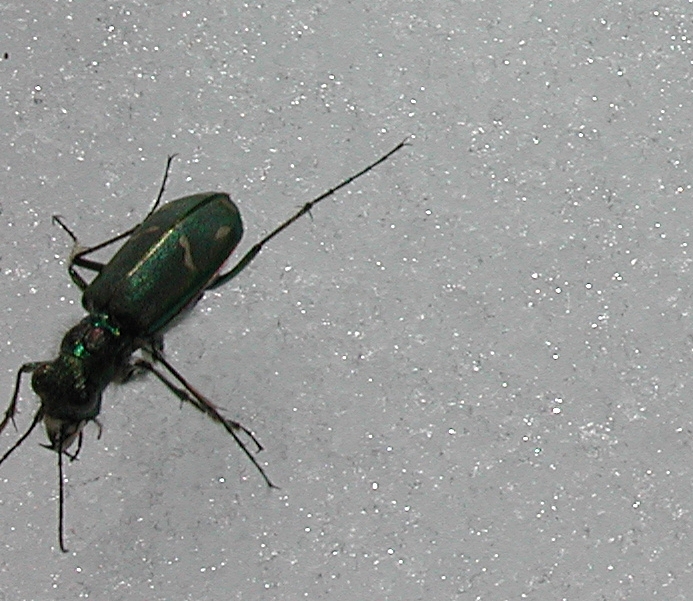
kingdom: Animalia
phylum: Arthropoda
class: Insecta
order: Coleoptera
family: Carabidae
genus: Cicindela
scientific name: Cicindela purpurea
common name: Cow path tiger beetle
